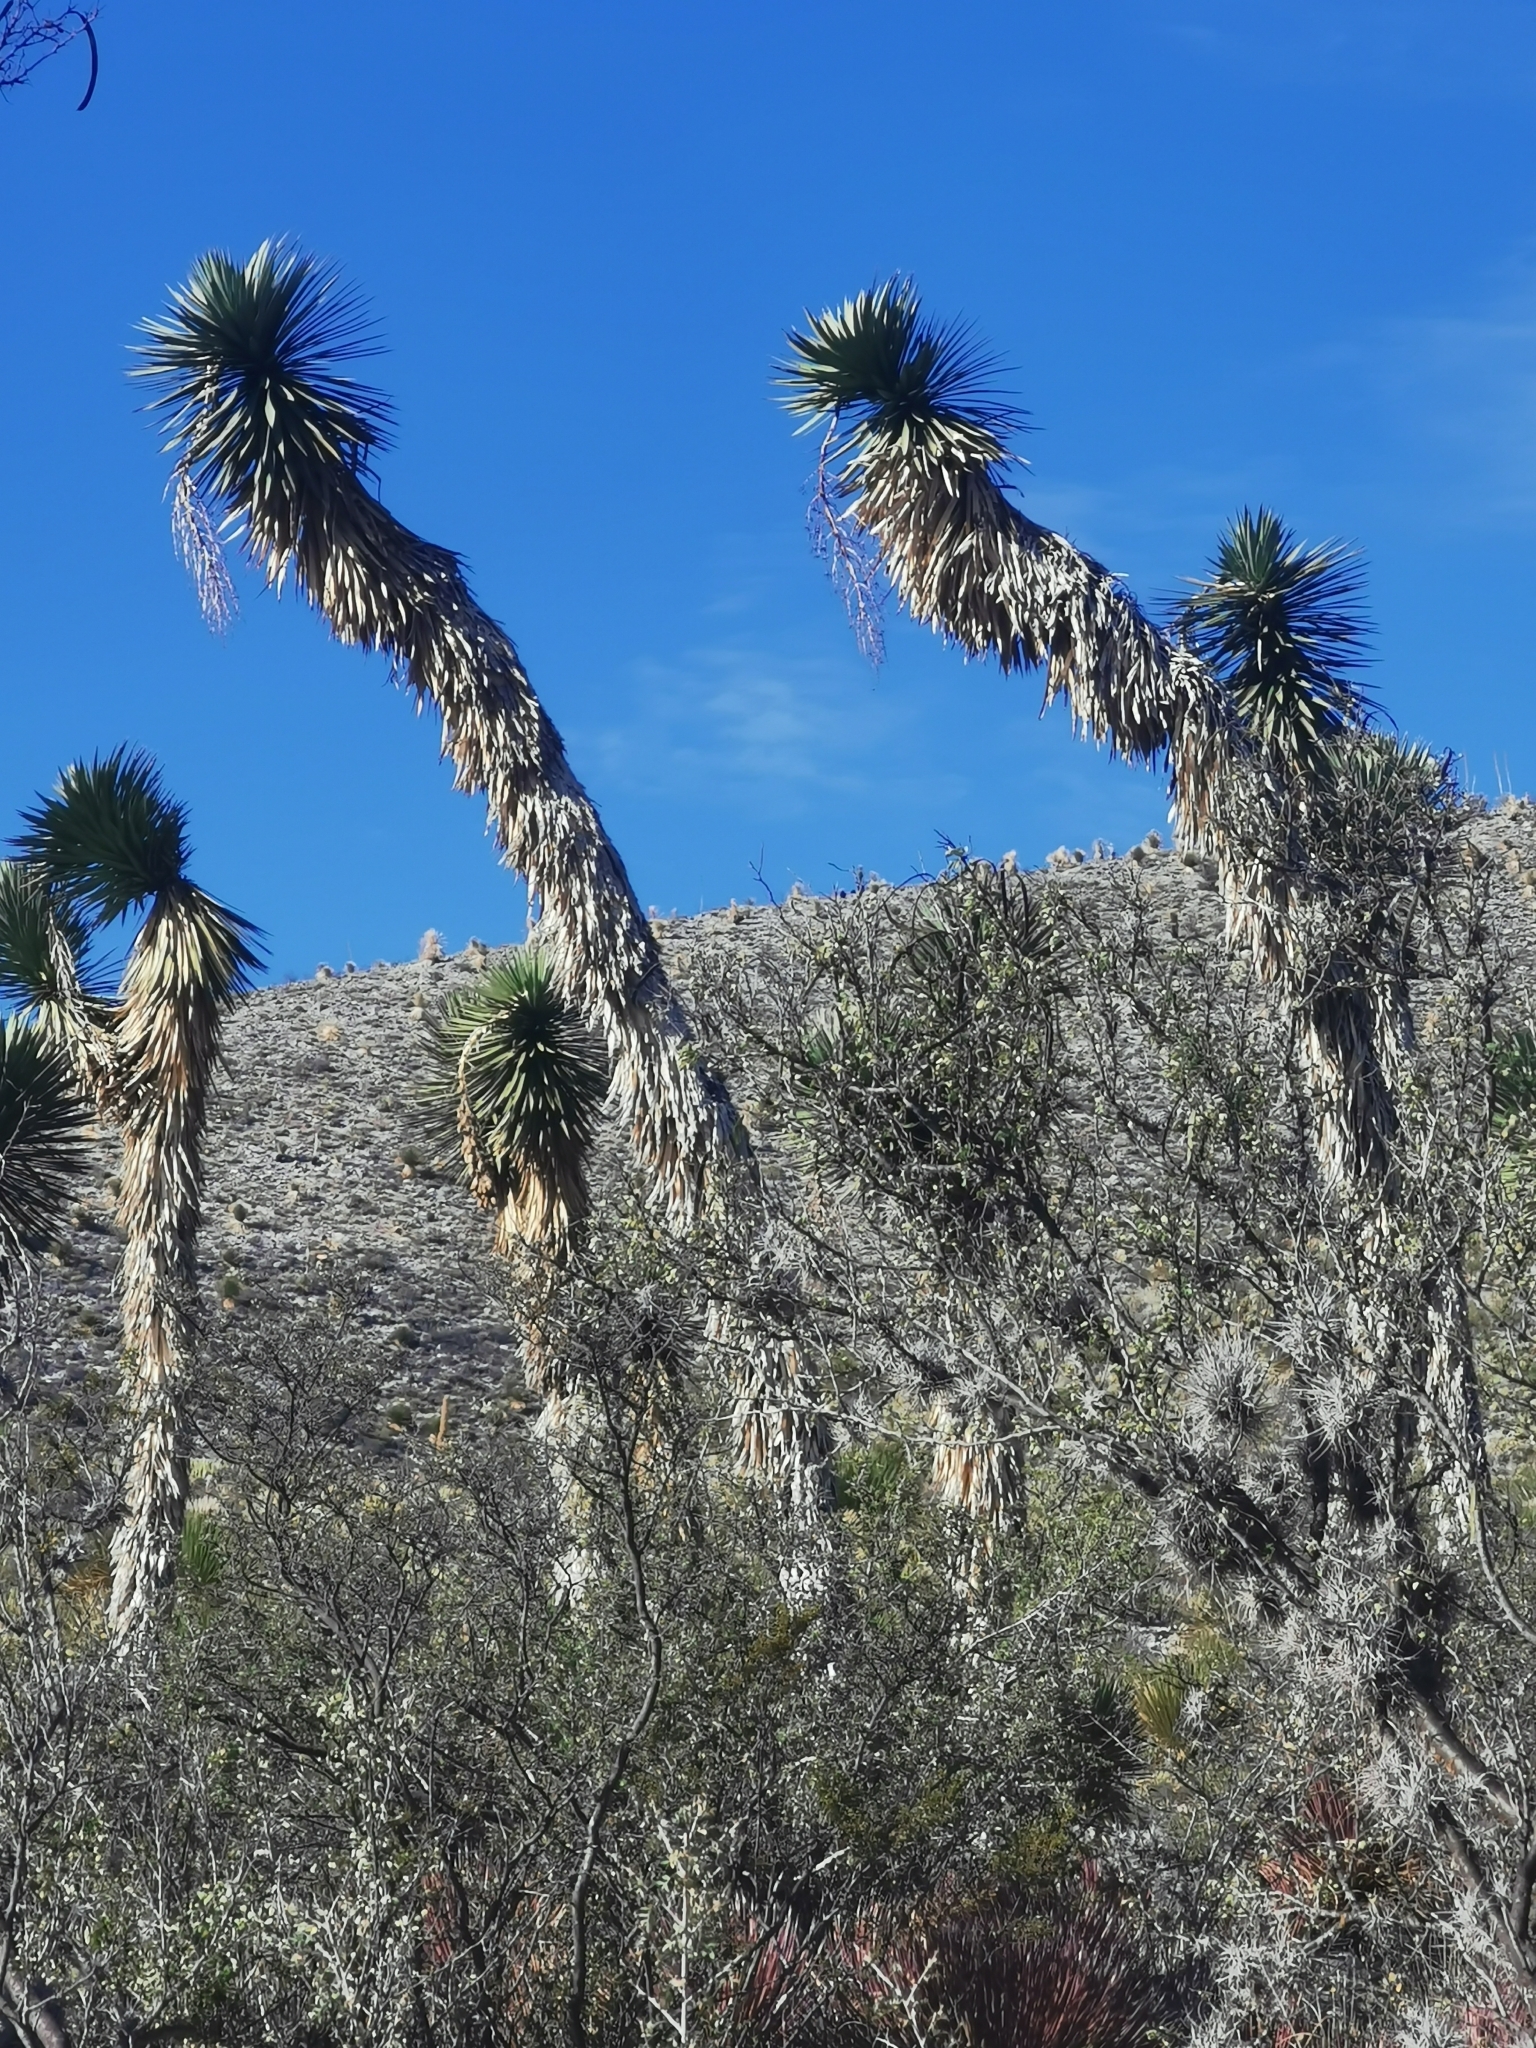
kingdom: Plantae
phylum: Tracheophyta
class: Liliopsida
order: Asparagales
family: Asparagaceae
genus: Yucca
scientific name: Yucca filifera
